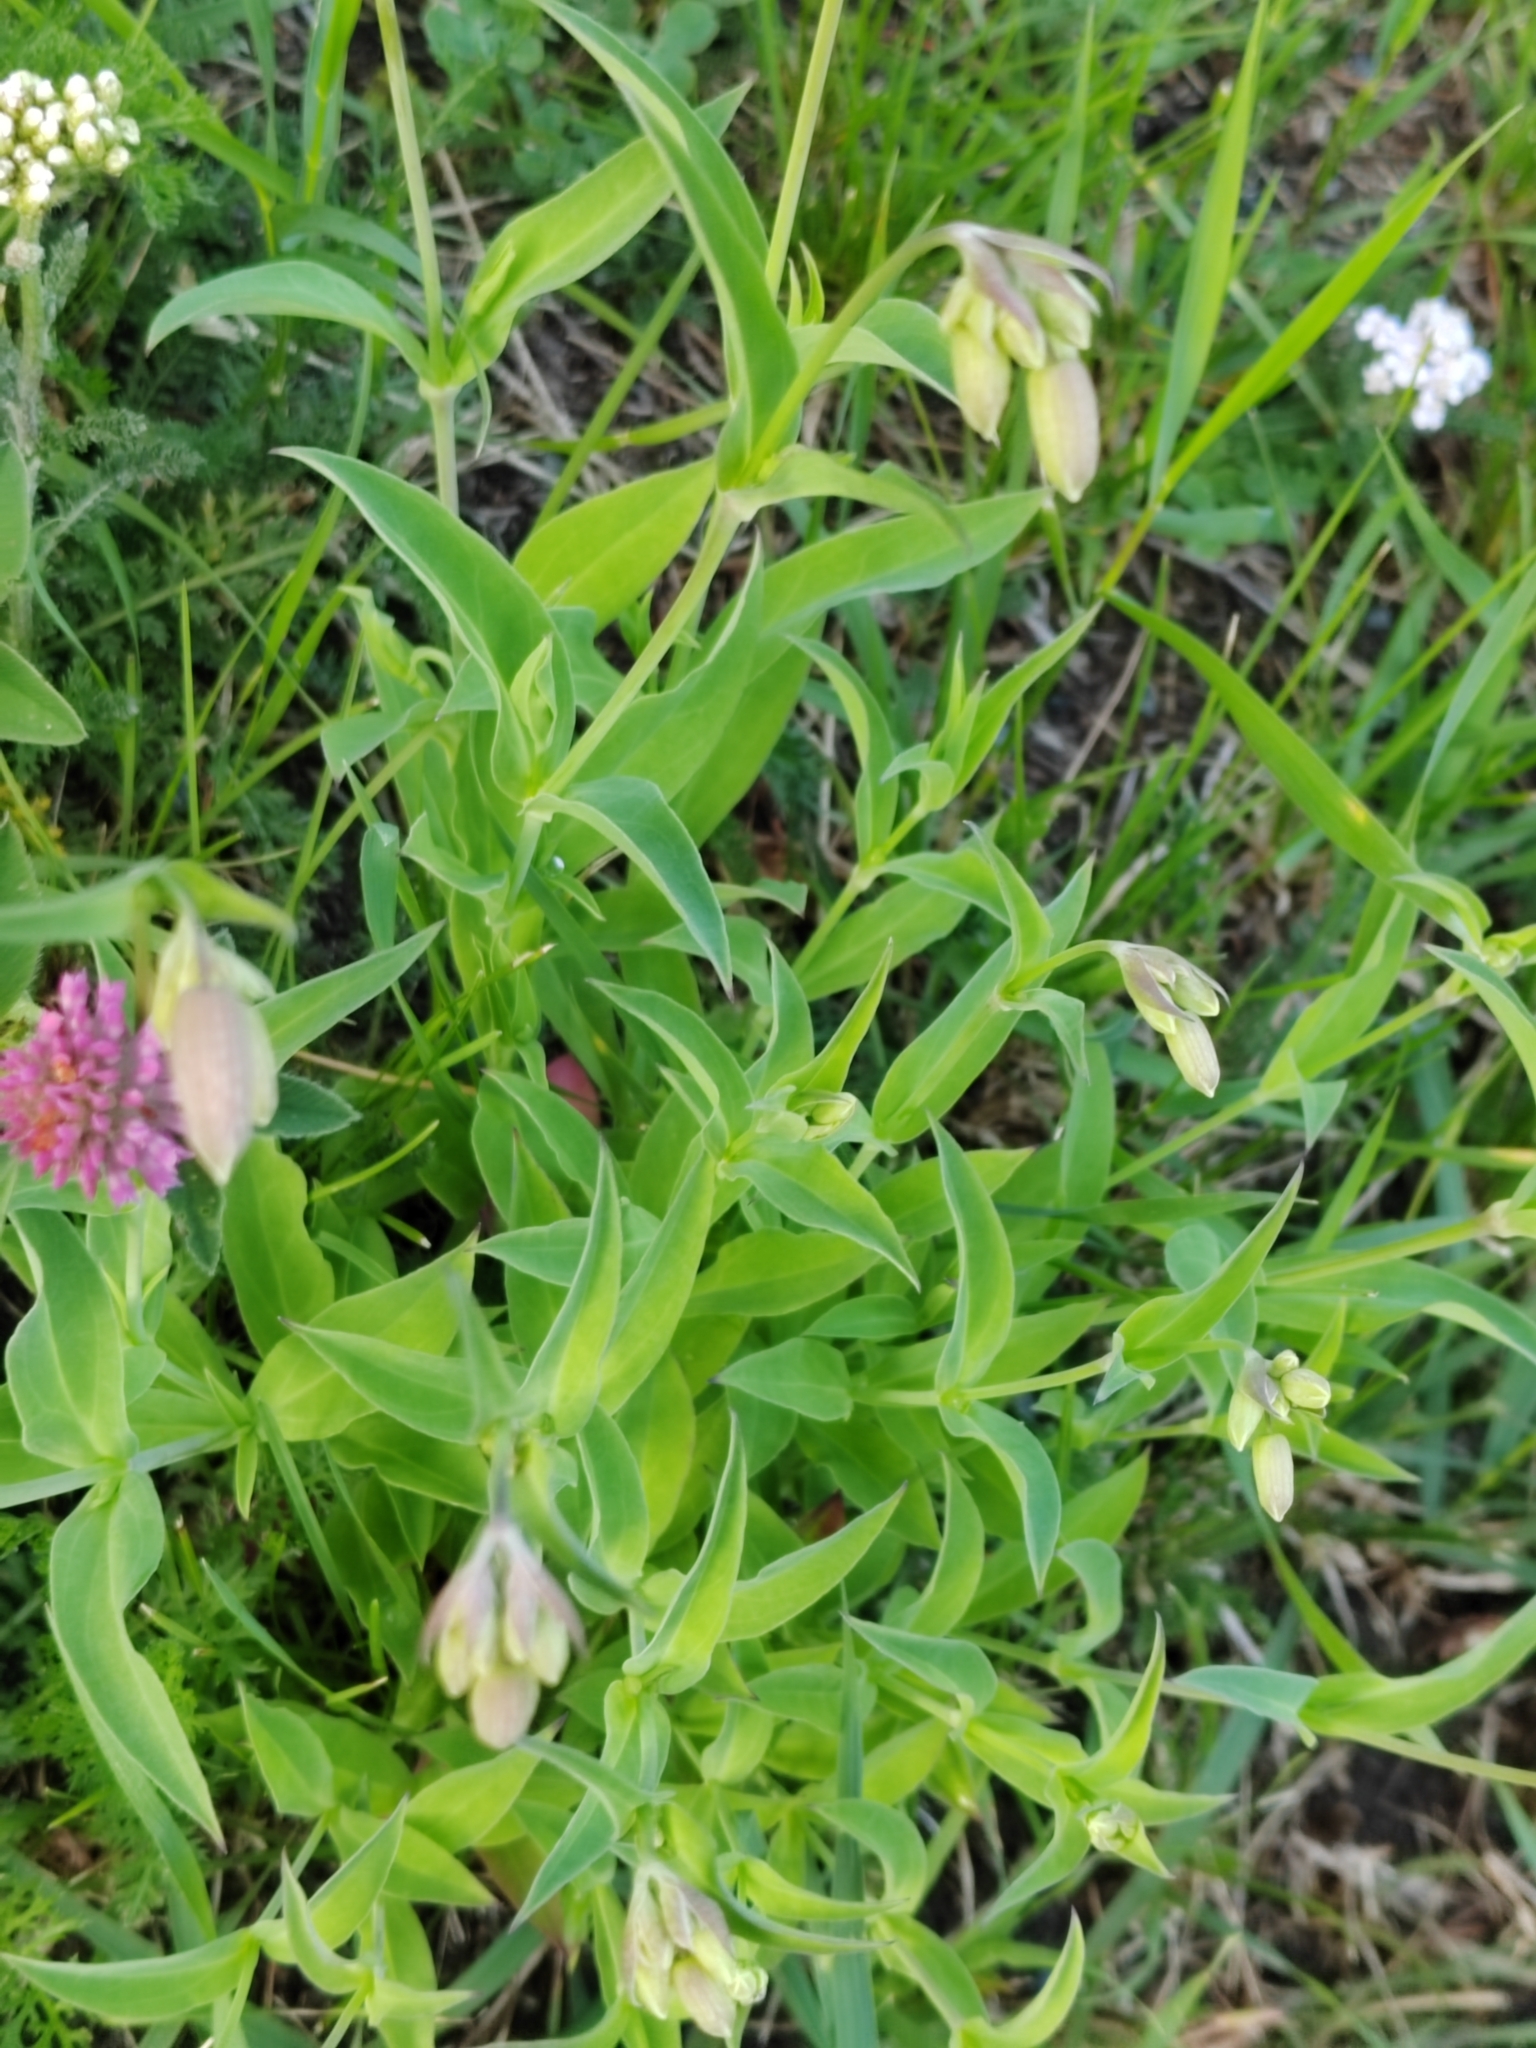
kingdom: Plantae
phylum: Tracheophyta
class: Magnoliopsida
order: Caryophyllales
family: Caryophyllaceae
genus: Silene
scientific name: Silene vulgaris
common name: Bladder campion
